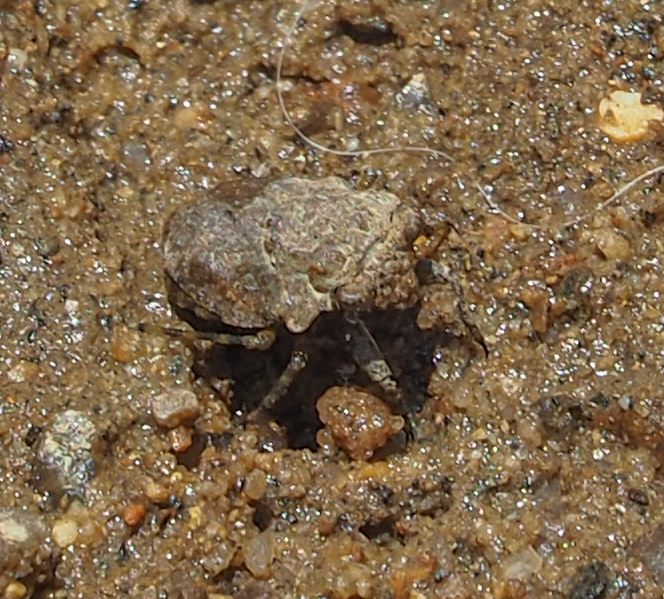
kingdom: Animalia
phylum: Arthropoda
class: Insecta
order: Hemiptera
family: Gelastocoridae
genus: Gelastocoris
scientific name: Gelastocoris oculatus
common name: Toad bug
